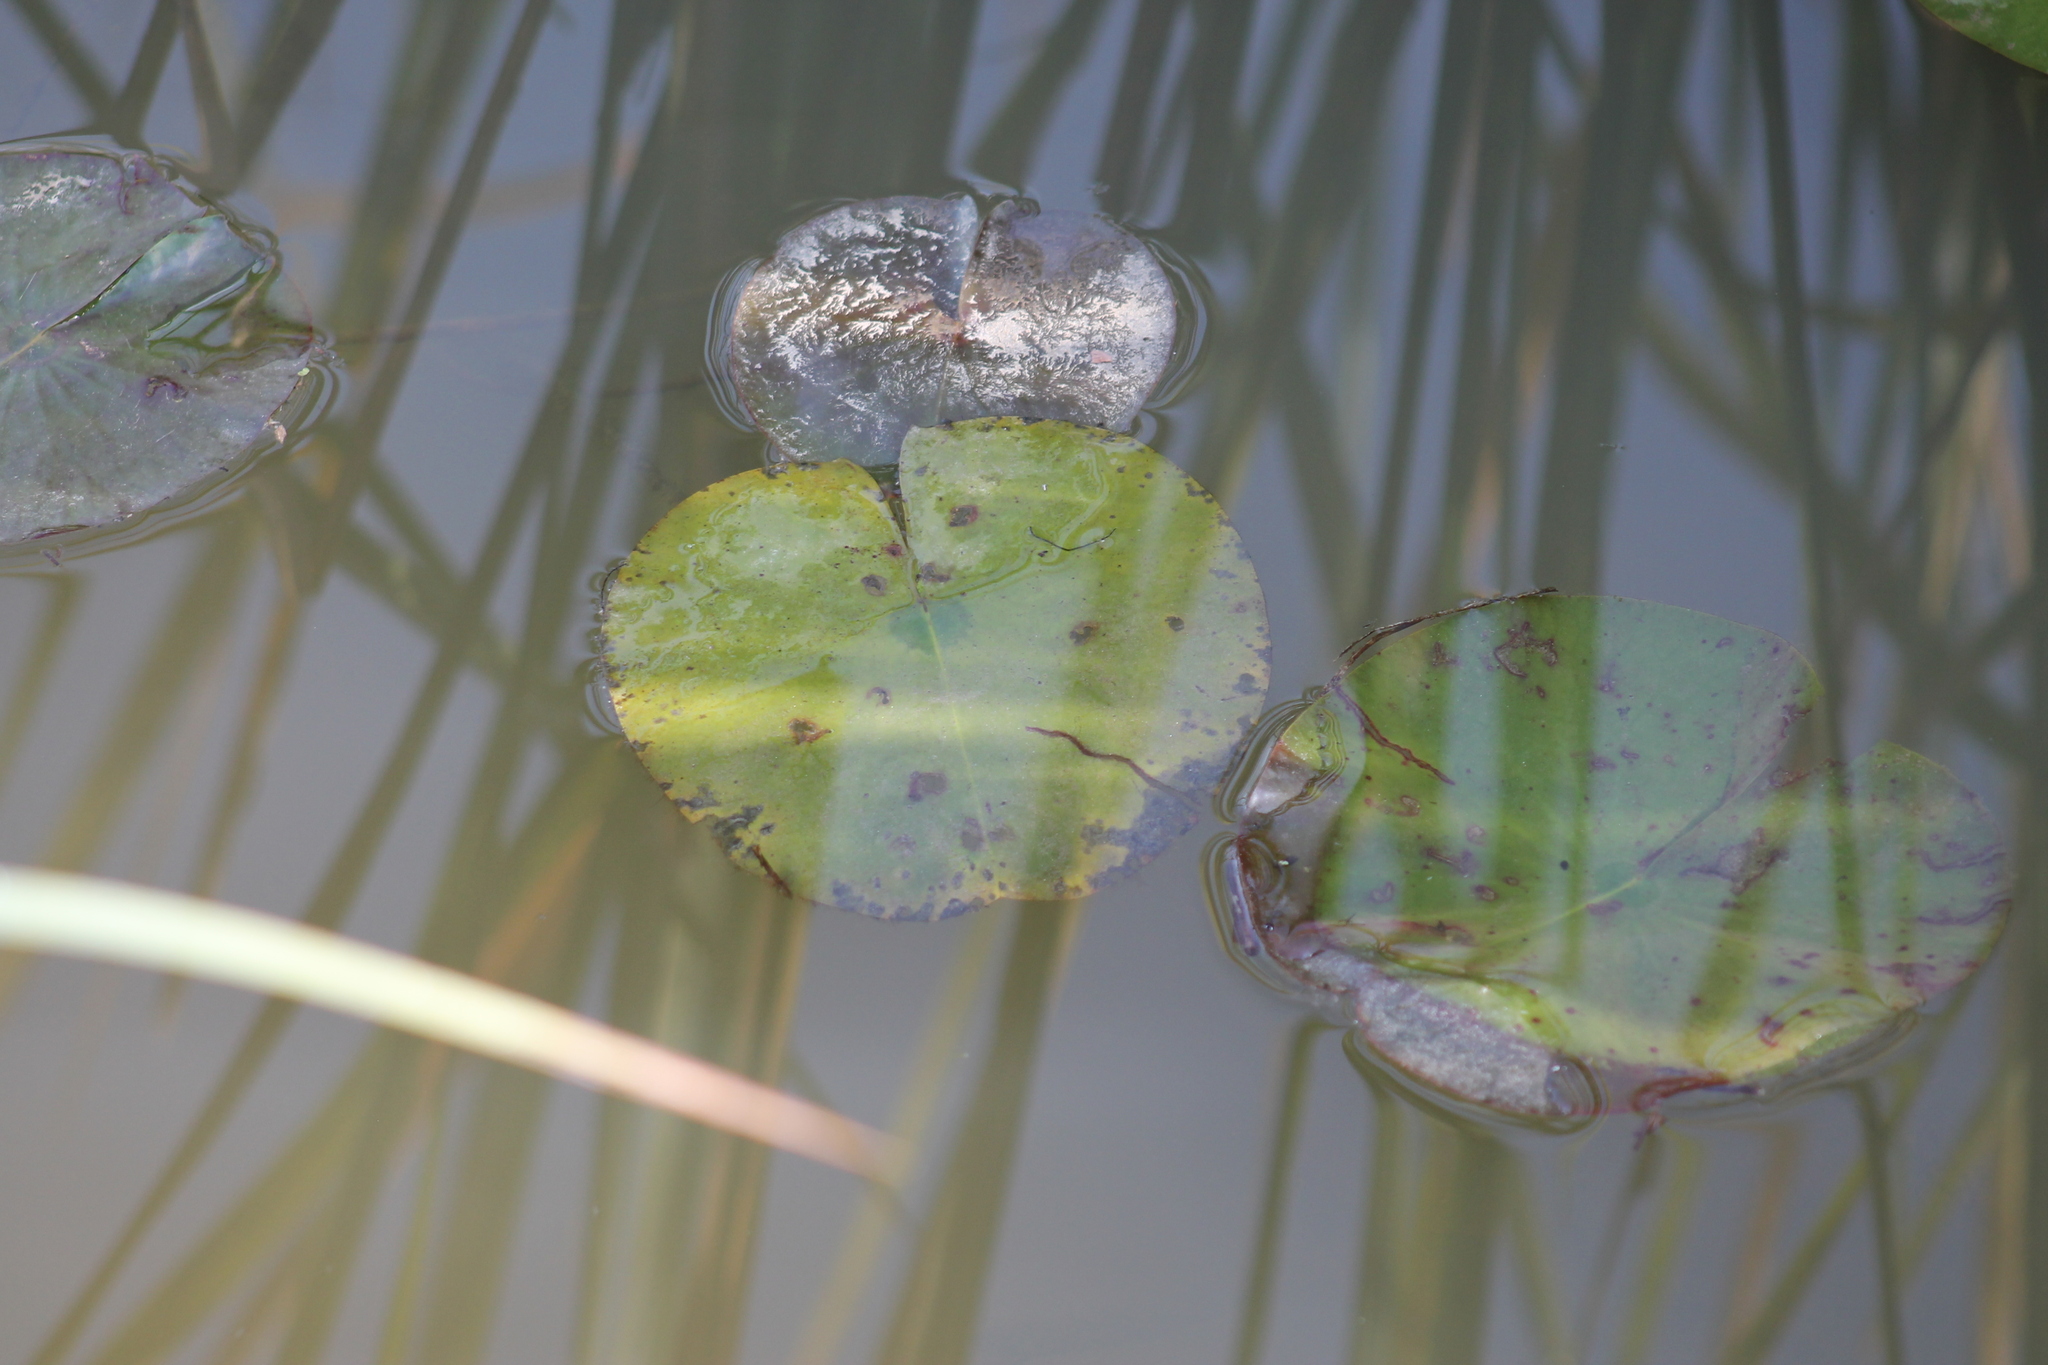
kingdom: Plantae
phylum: Tracheophyta
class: Magnoliopsida
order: Nymphaeales
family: Nymphaeaceae
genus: Nymphaea
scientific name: Nymphaea odorata
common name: Fragrant water-lily
